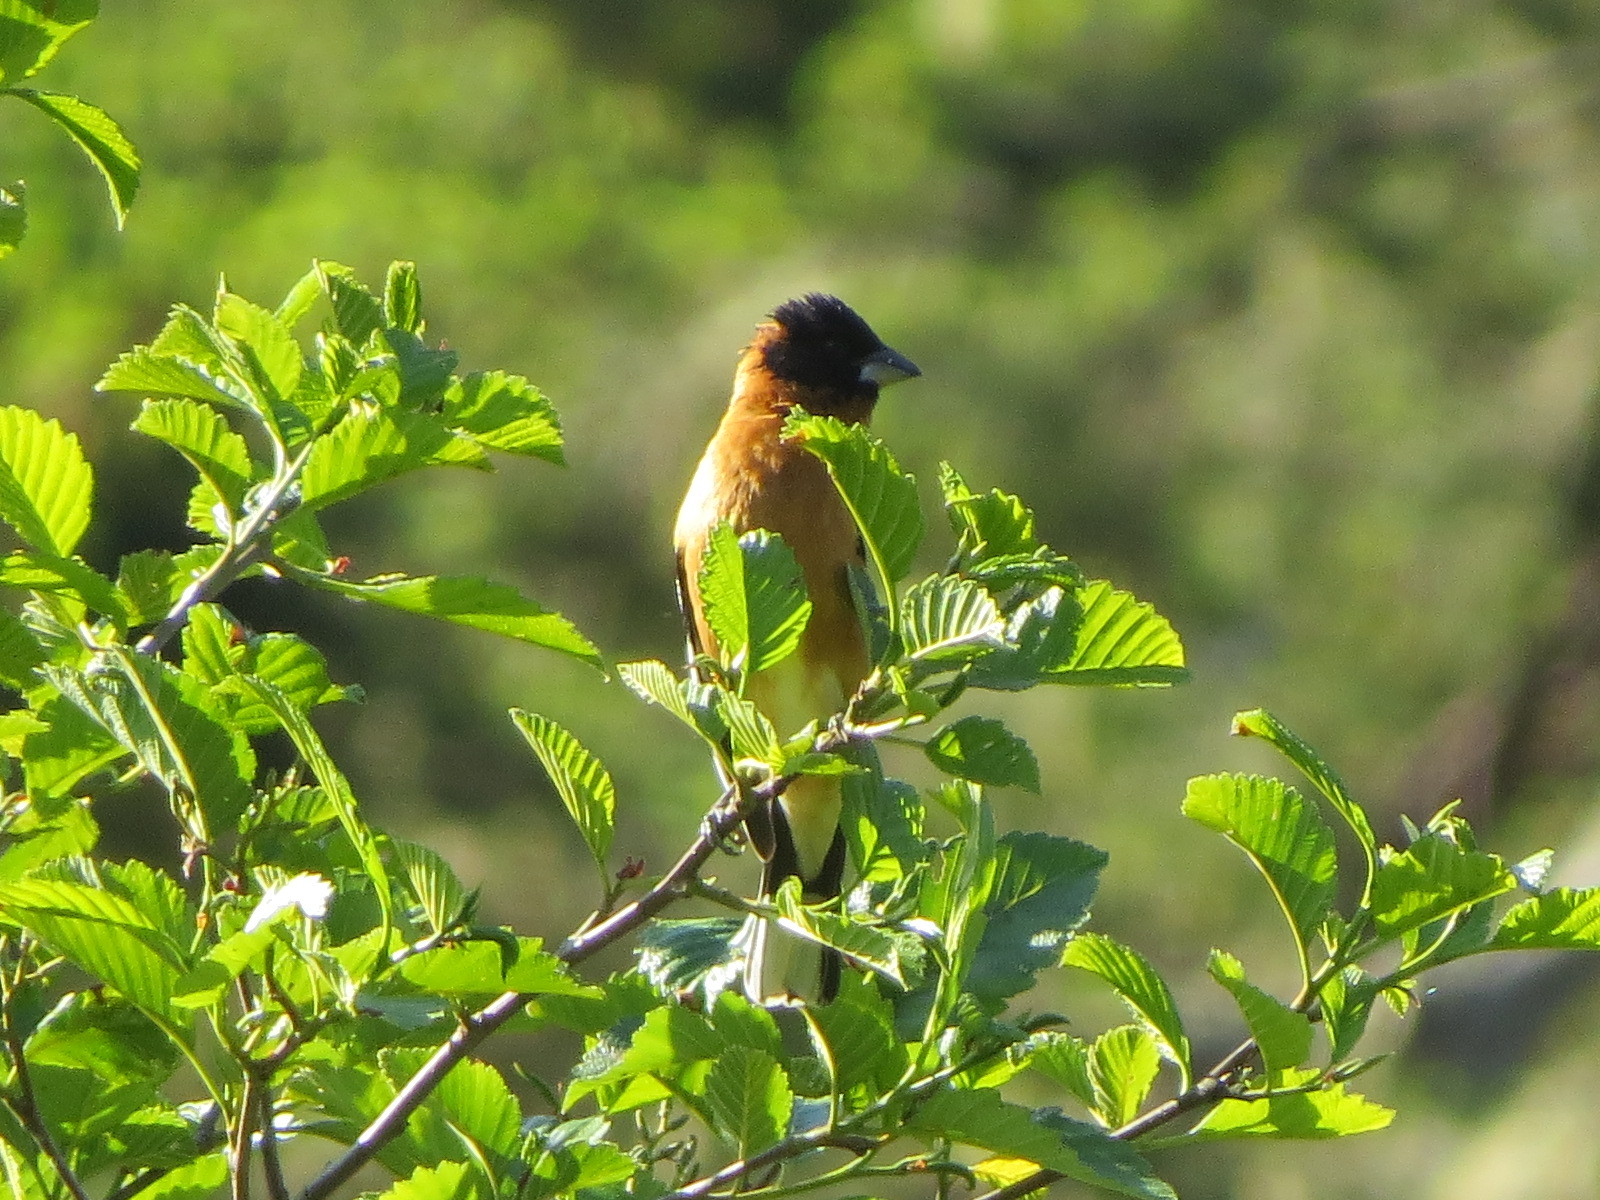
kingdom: Animalia
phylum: Chordata
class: Aves
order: Passeriformes
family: Cardinalidae
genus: Pheucticus
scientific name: Pheucticus melanocephalus
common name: Black-headed grosbeak
